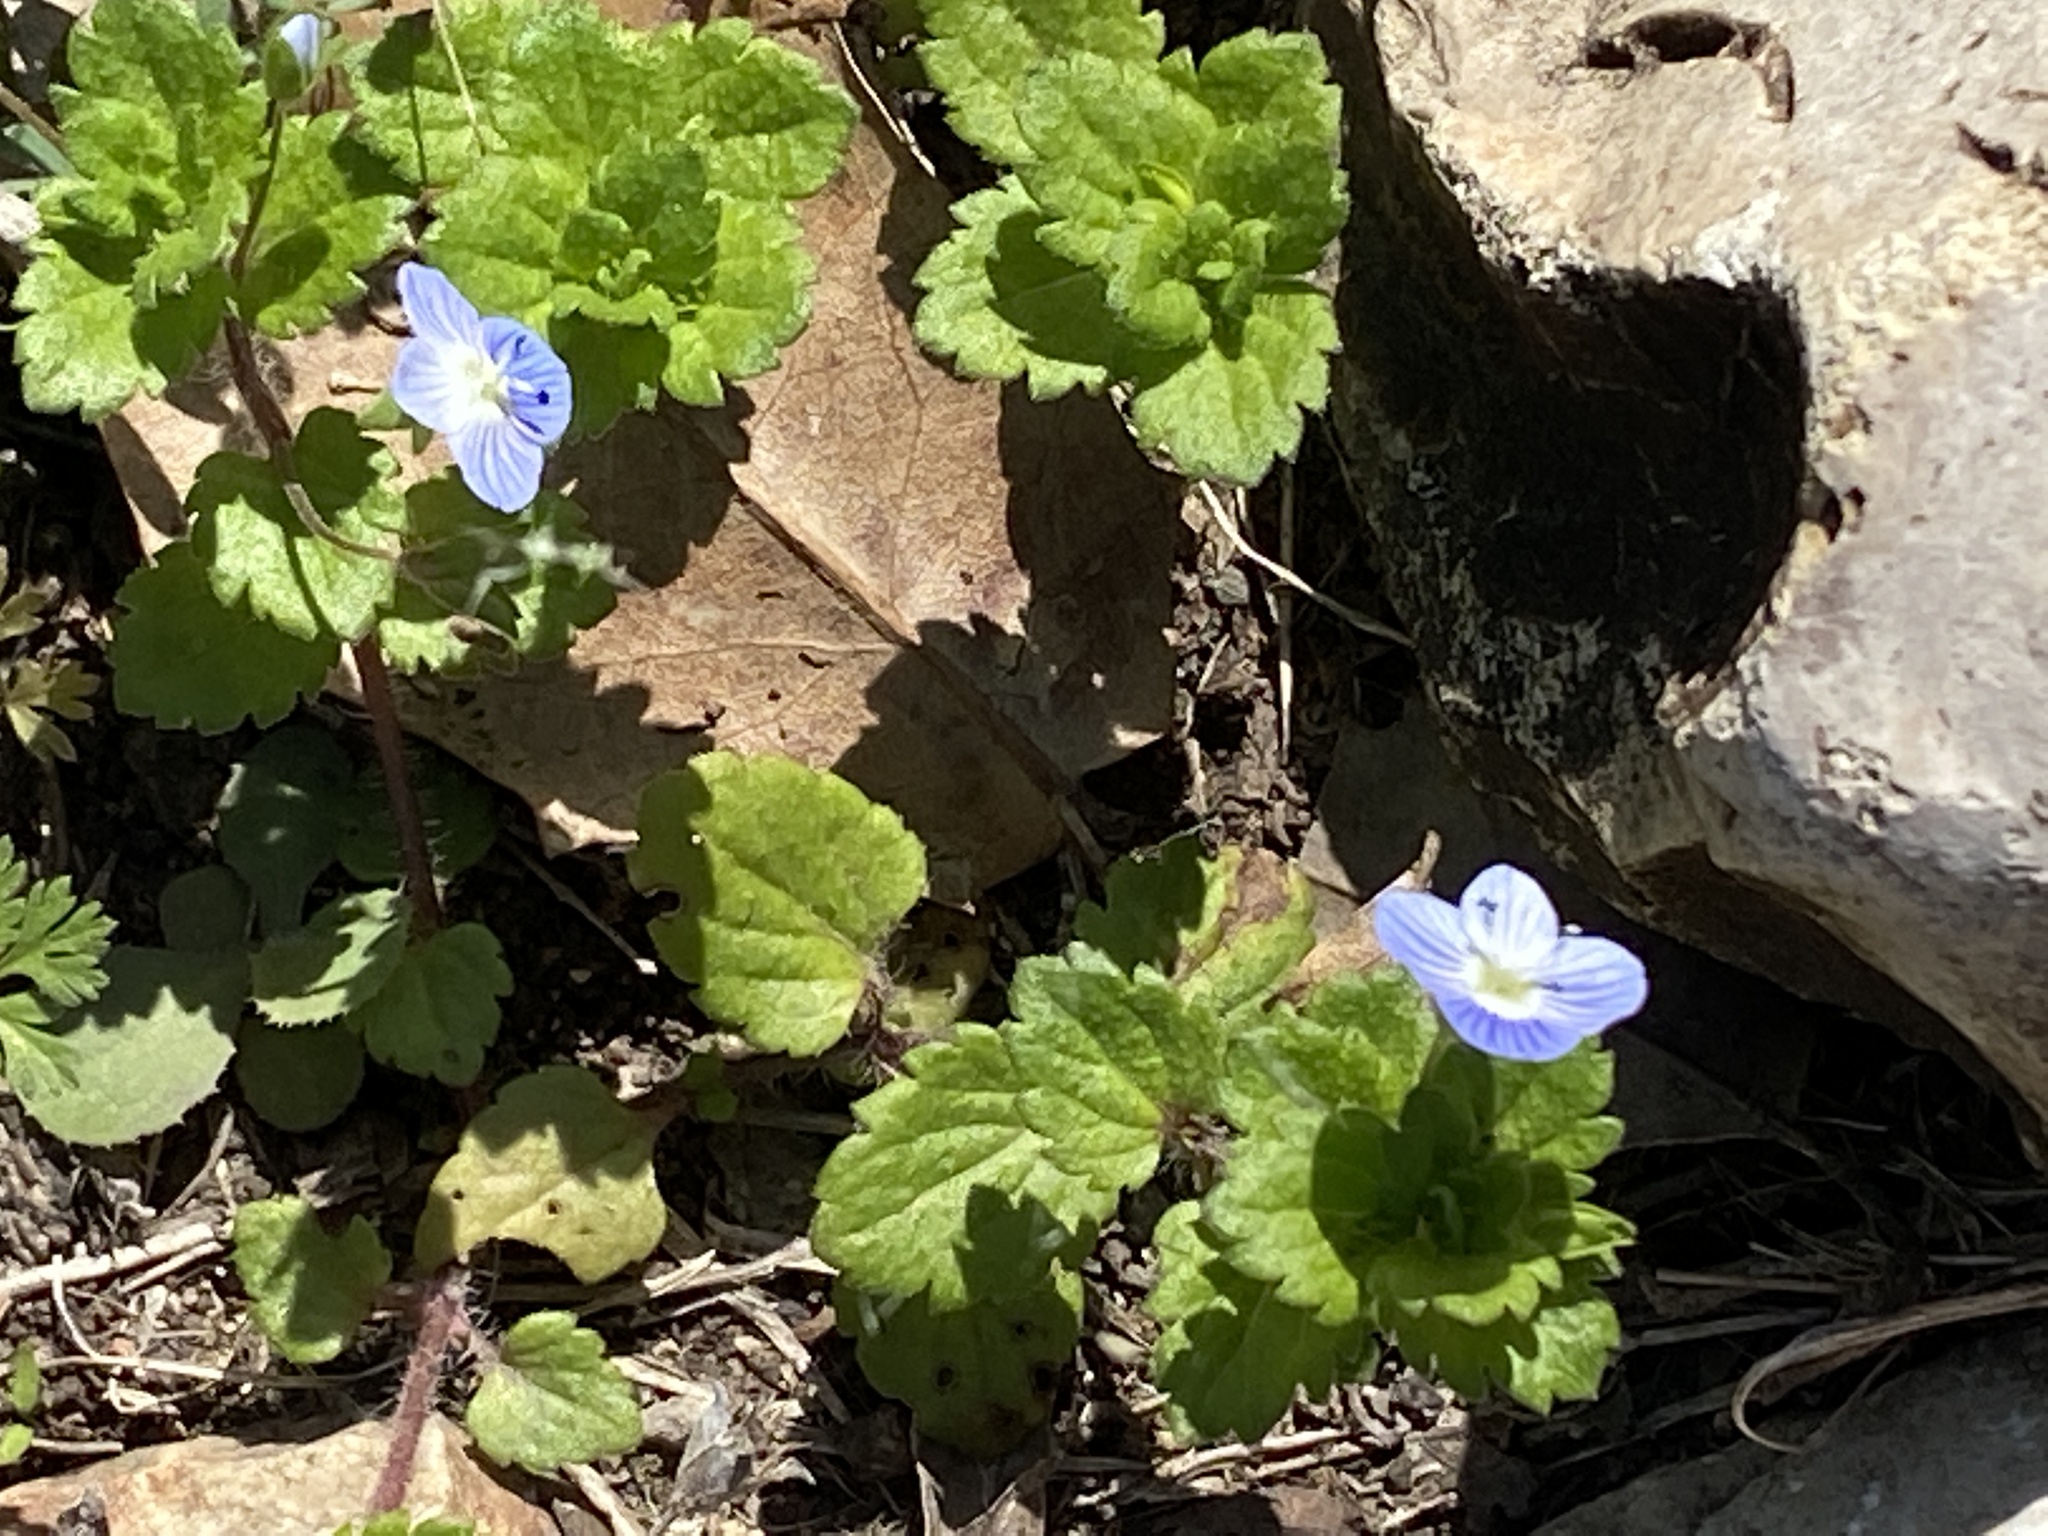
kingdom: Plantae
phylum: Tracheophyta
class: Magnoliopsida
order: Lamiales
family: Plantaginaceae
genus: Veronica
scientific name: Veronica persica
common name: Common field-speedwell
